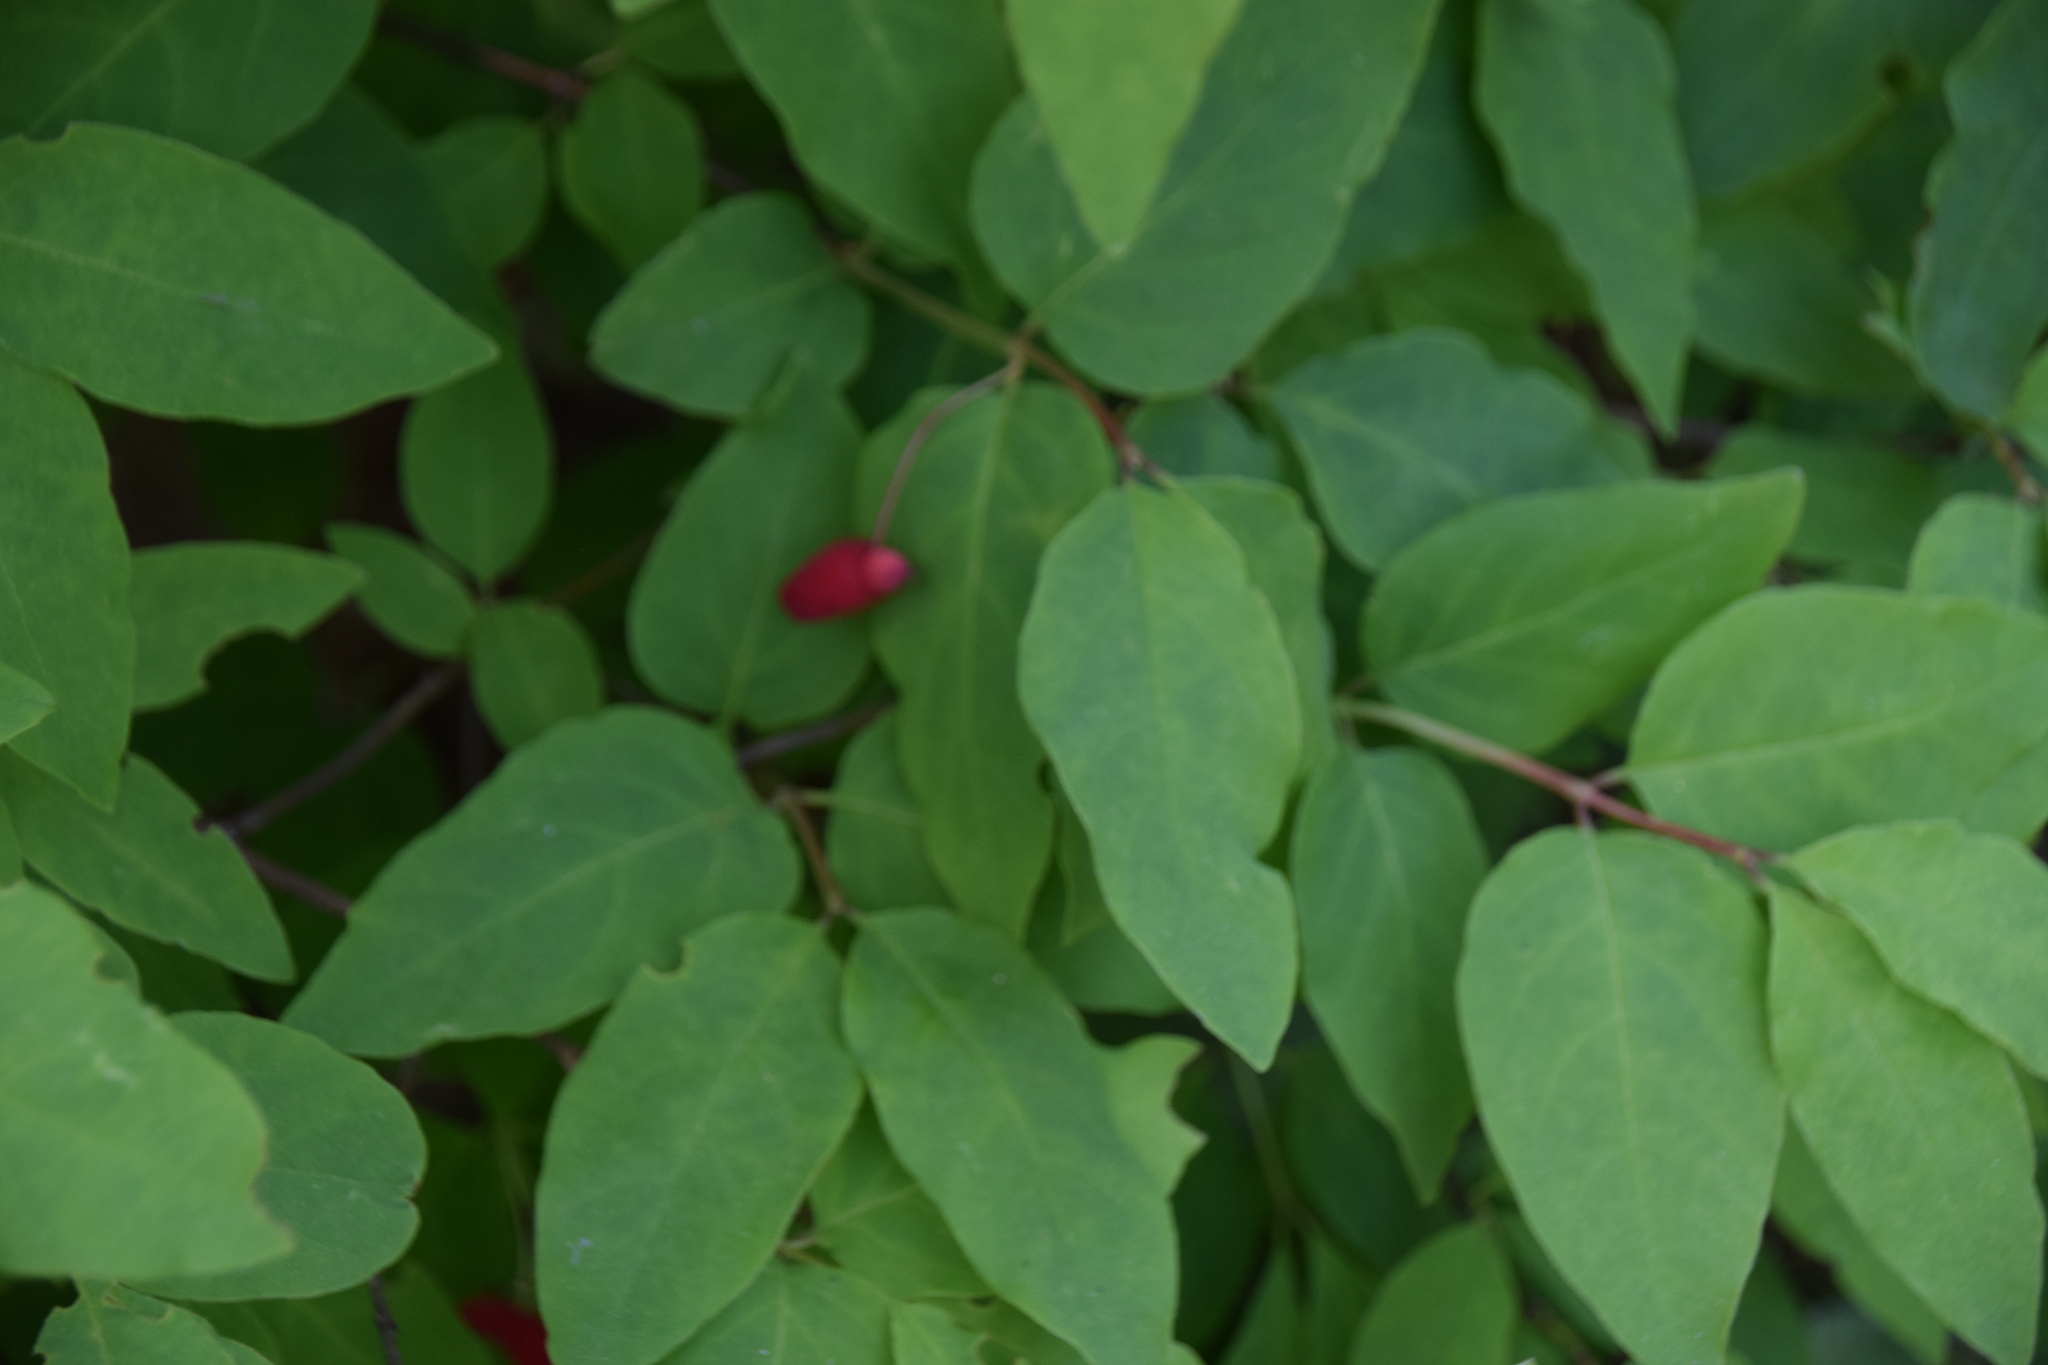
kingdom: Plantae
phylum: Tracheophyta
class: Magnoliopsida
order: Dipsacales
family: Caprifoliaceae
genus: Lonicera
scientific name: Lonicera canadensis
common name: American fly-honeysuckle
